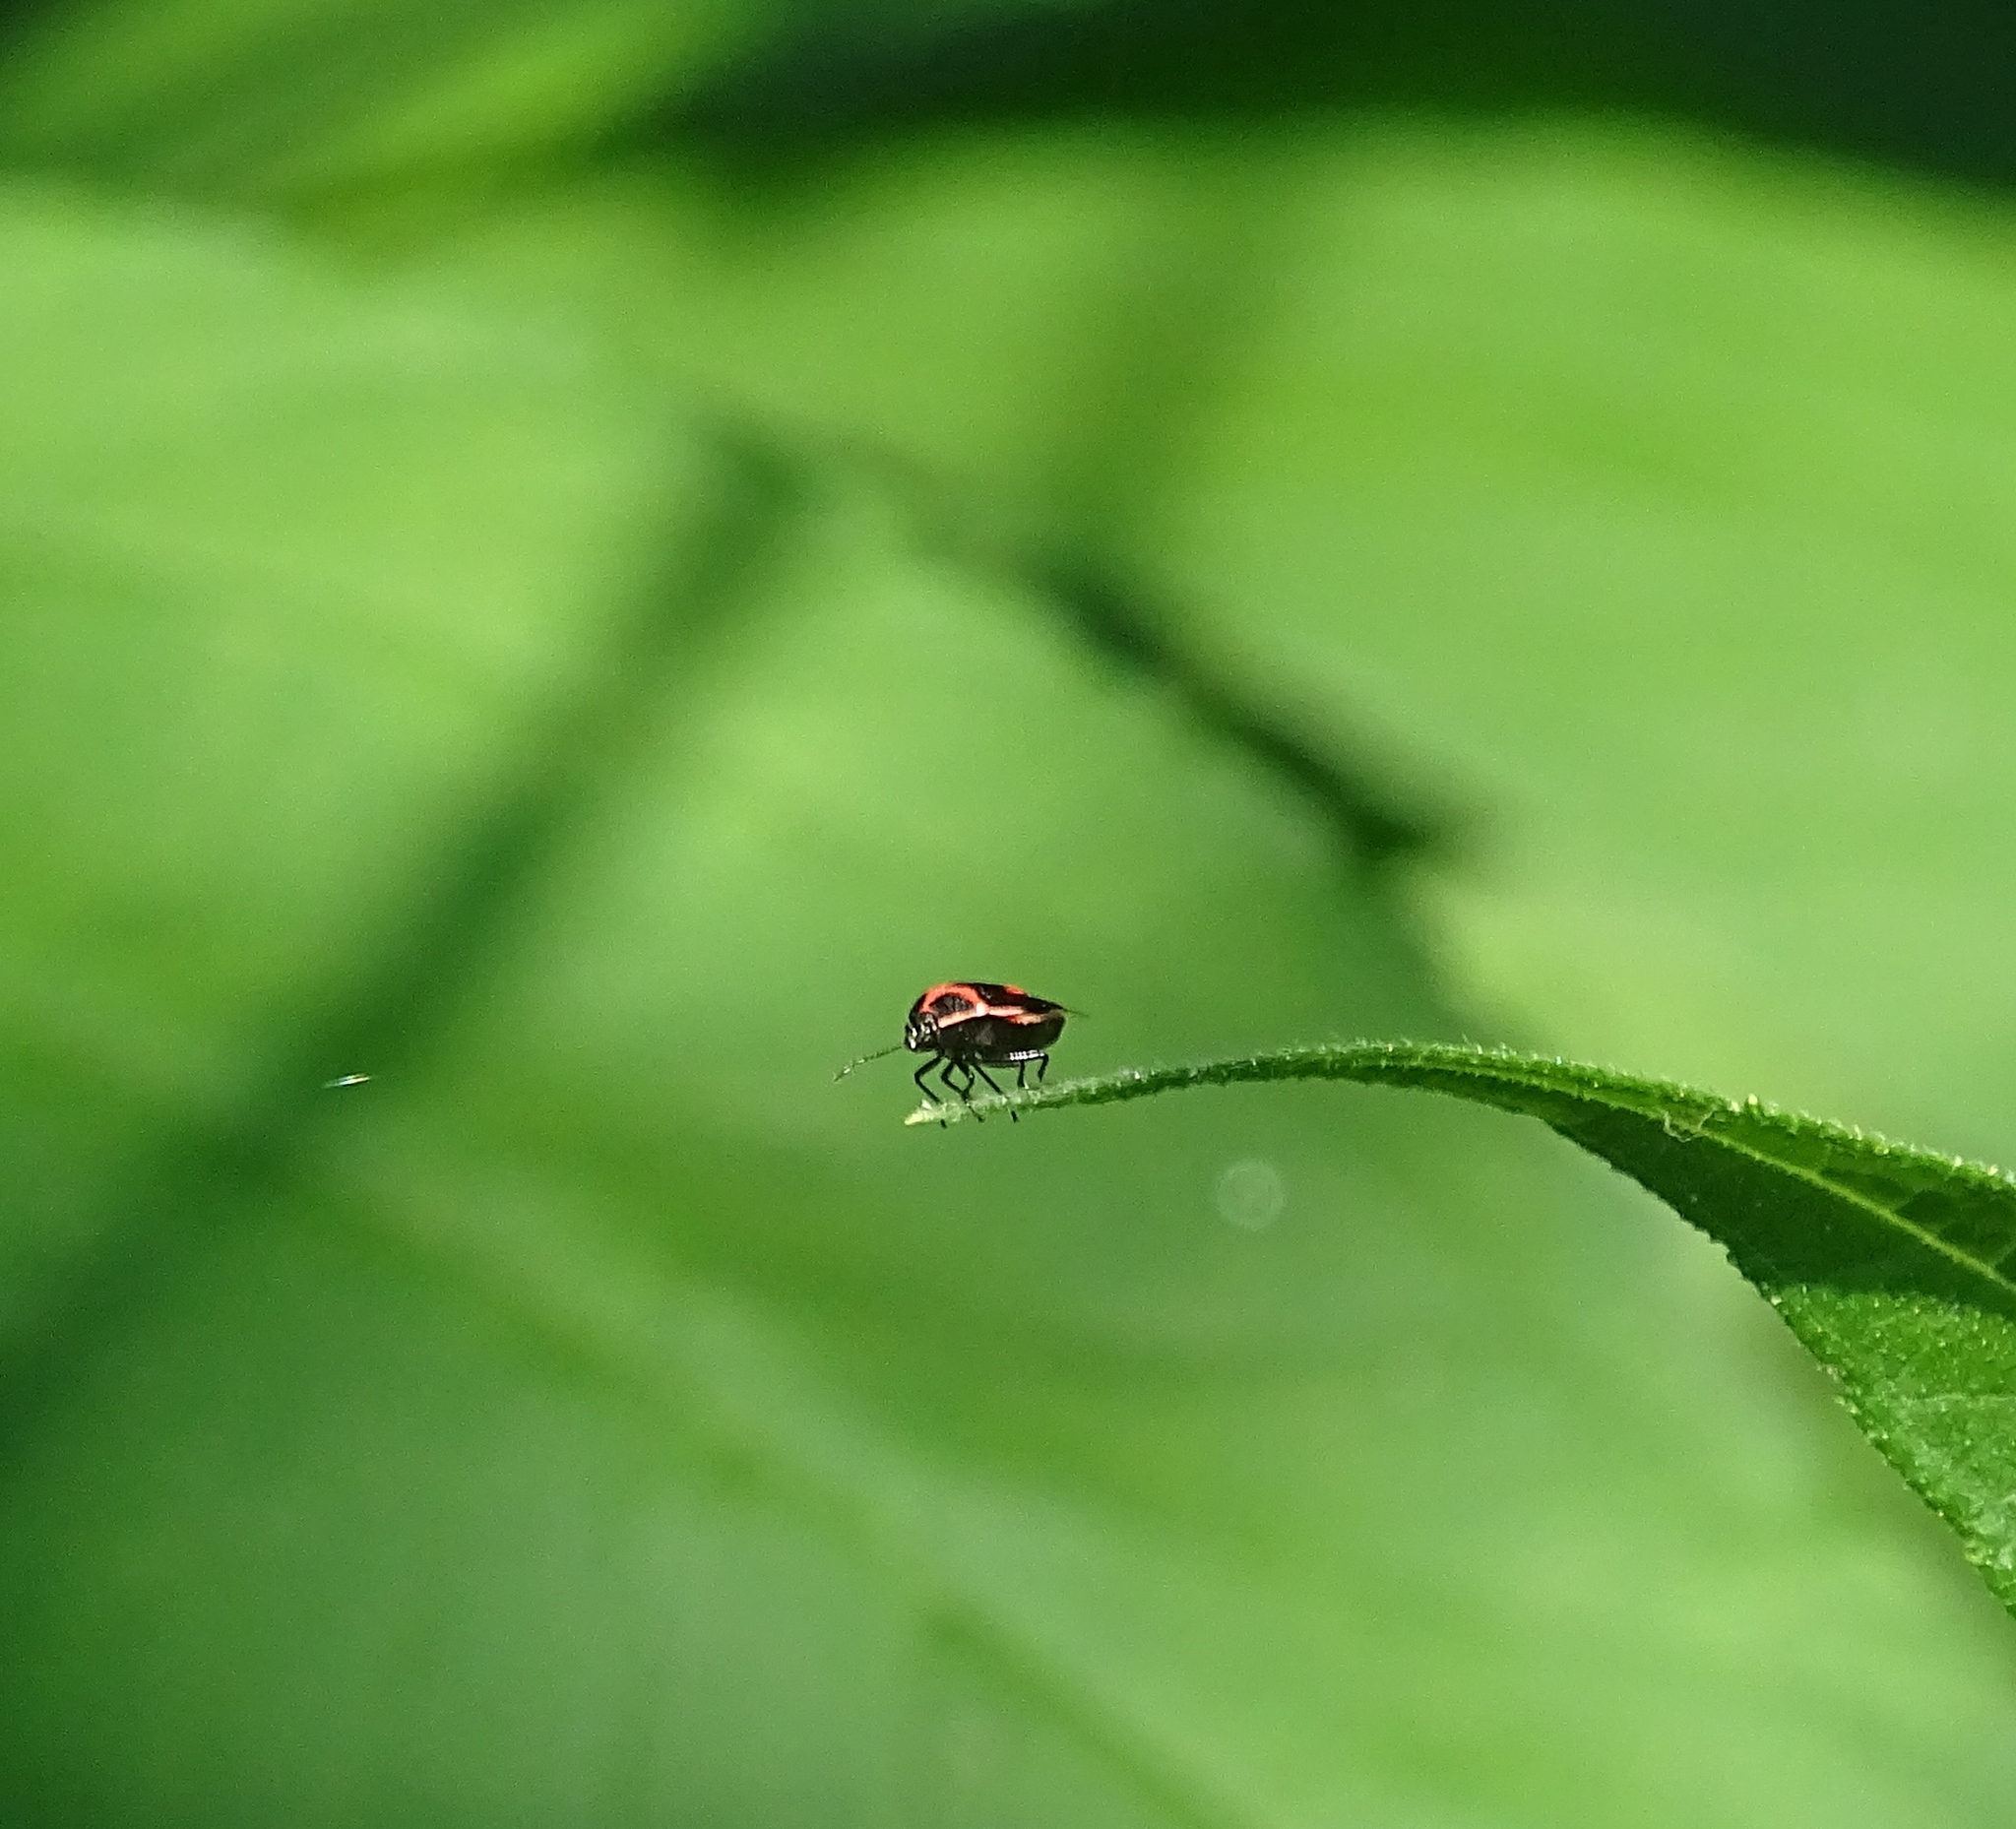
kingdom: Animalia
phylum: Arthropoda
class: Insecta
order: Hemiptera
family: Pentatomidae
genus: Cosmopepla
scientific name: Cosmopepla lintneriana
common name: Twice-stabbed stink bug
